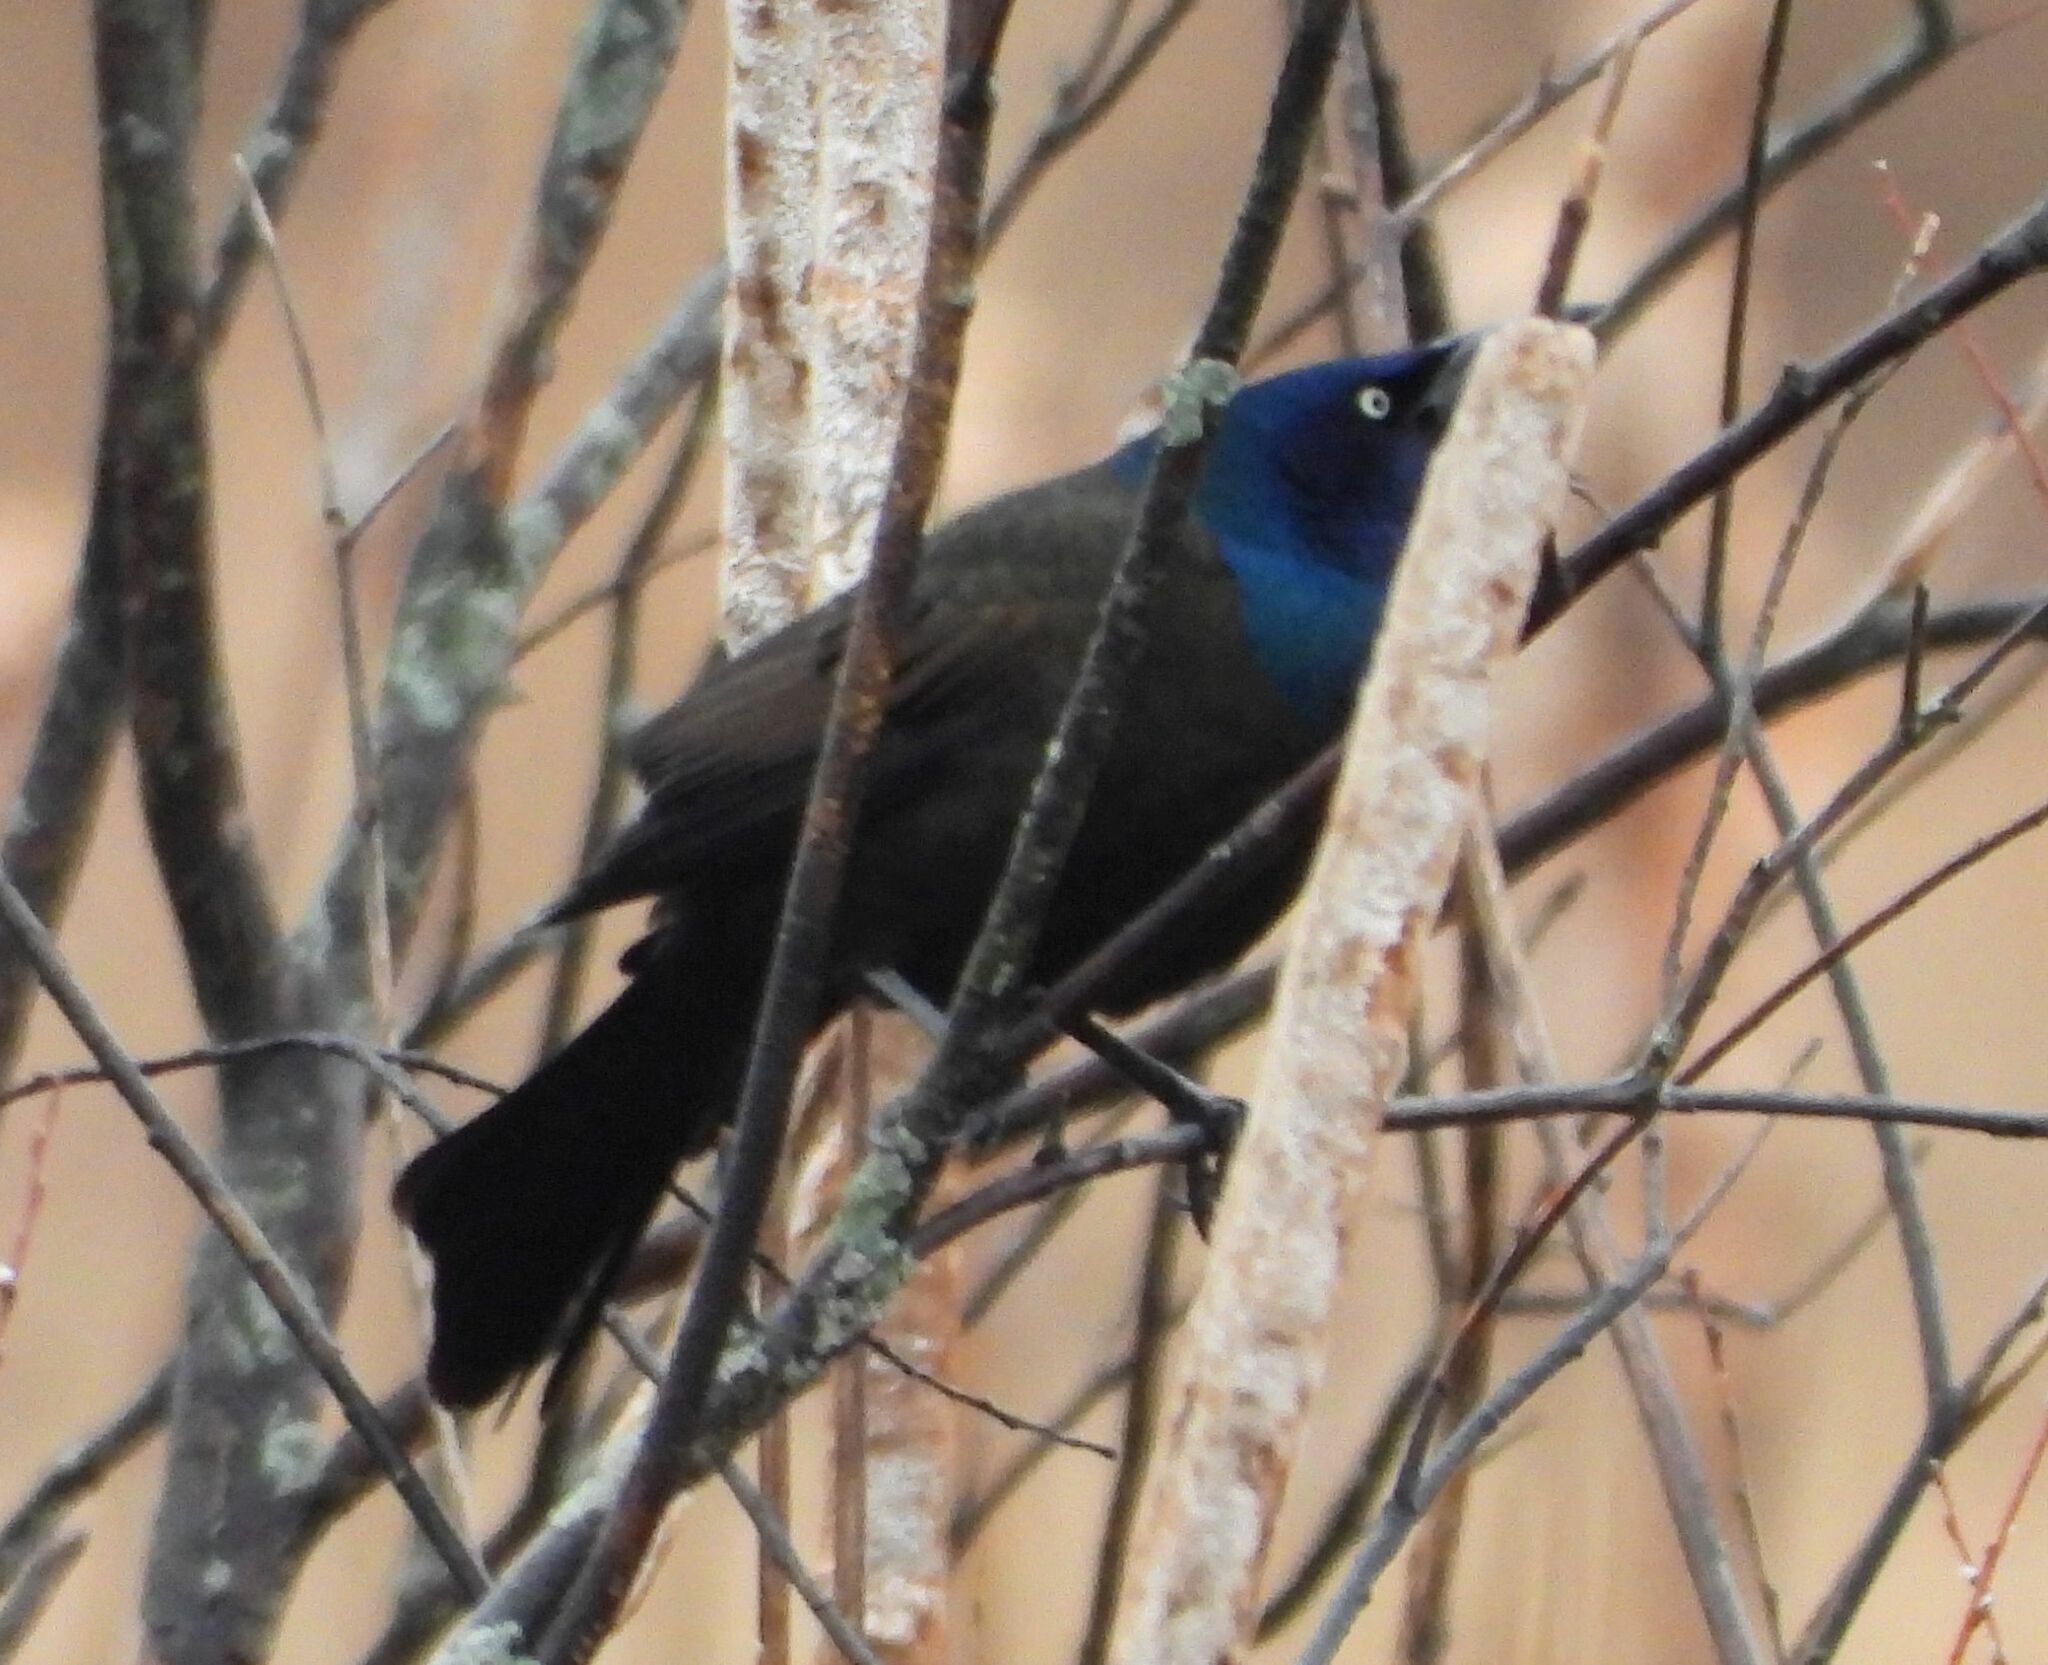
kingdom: Animalia
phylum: Chordata
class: Aves
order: Passeriformes
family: Icteridae
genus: Quiscalus
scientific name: Quiscalus quiscula
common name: Common grackle
